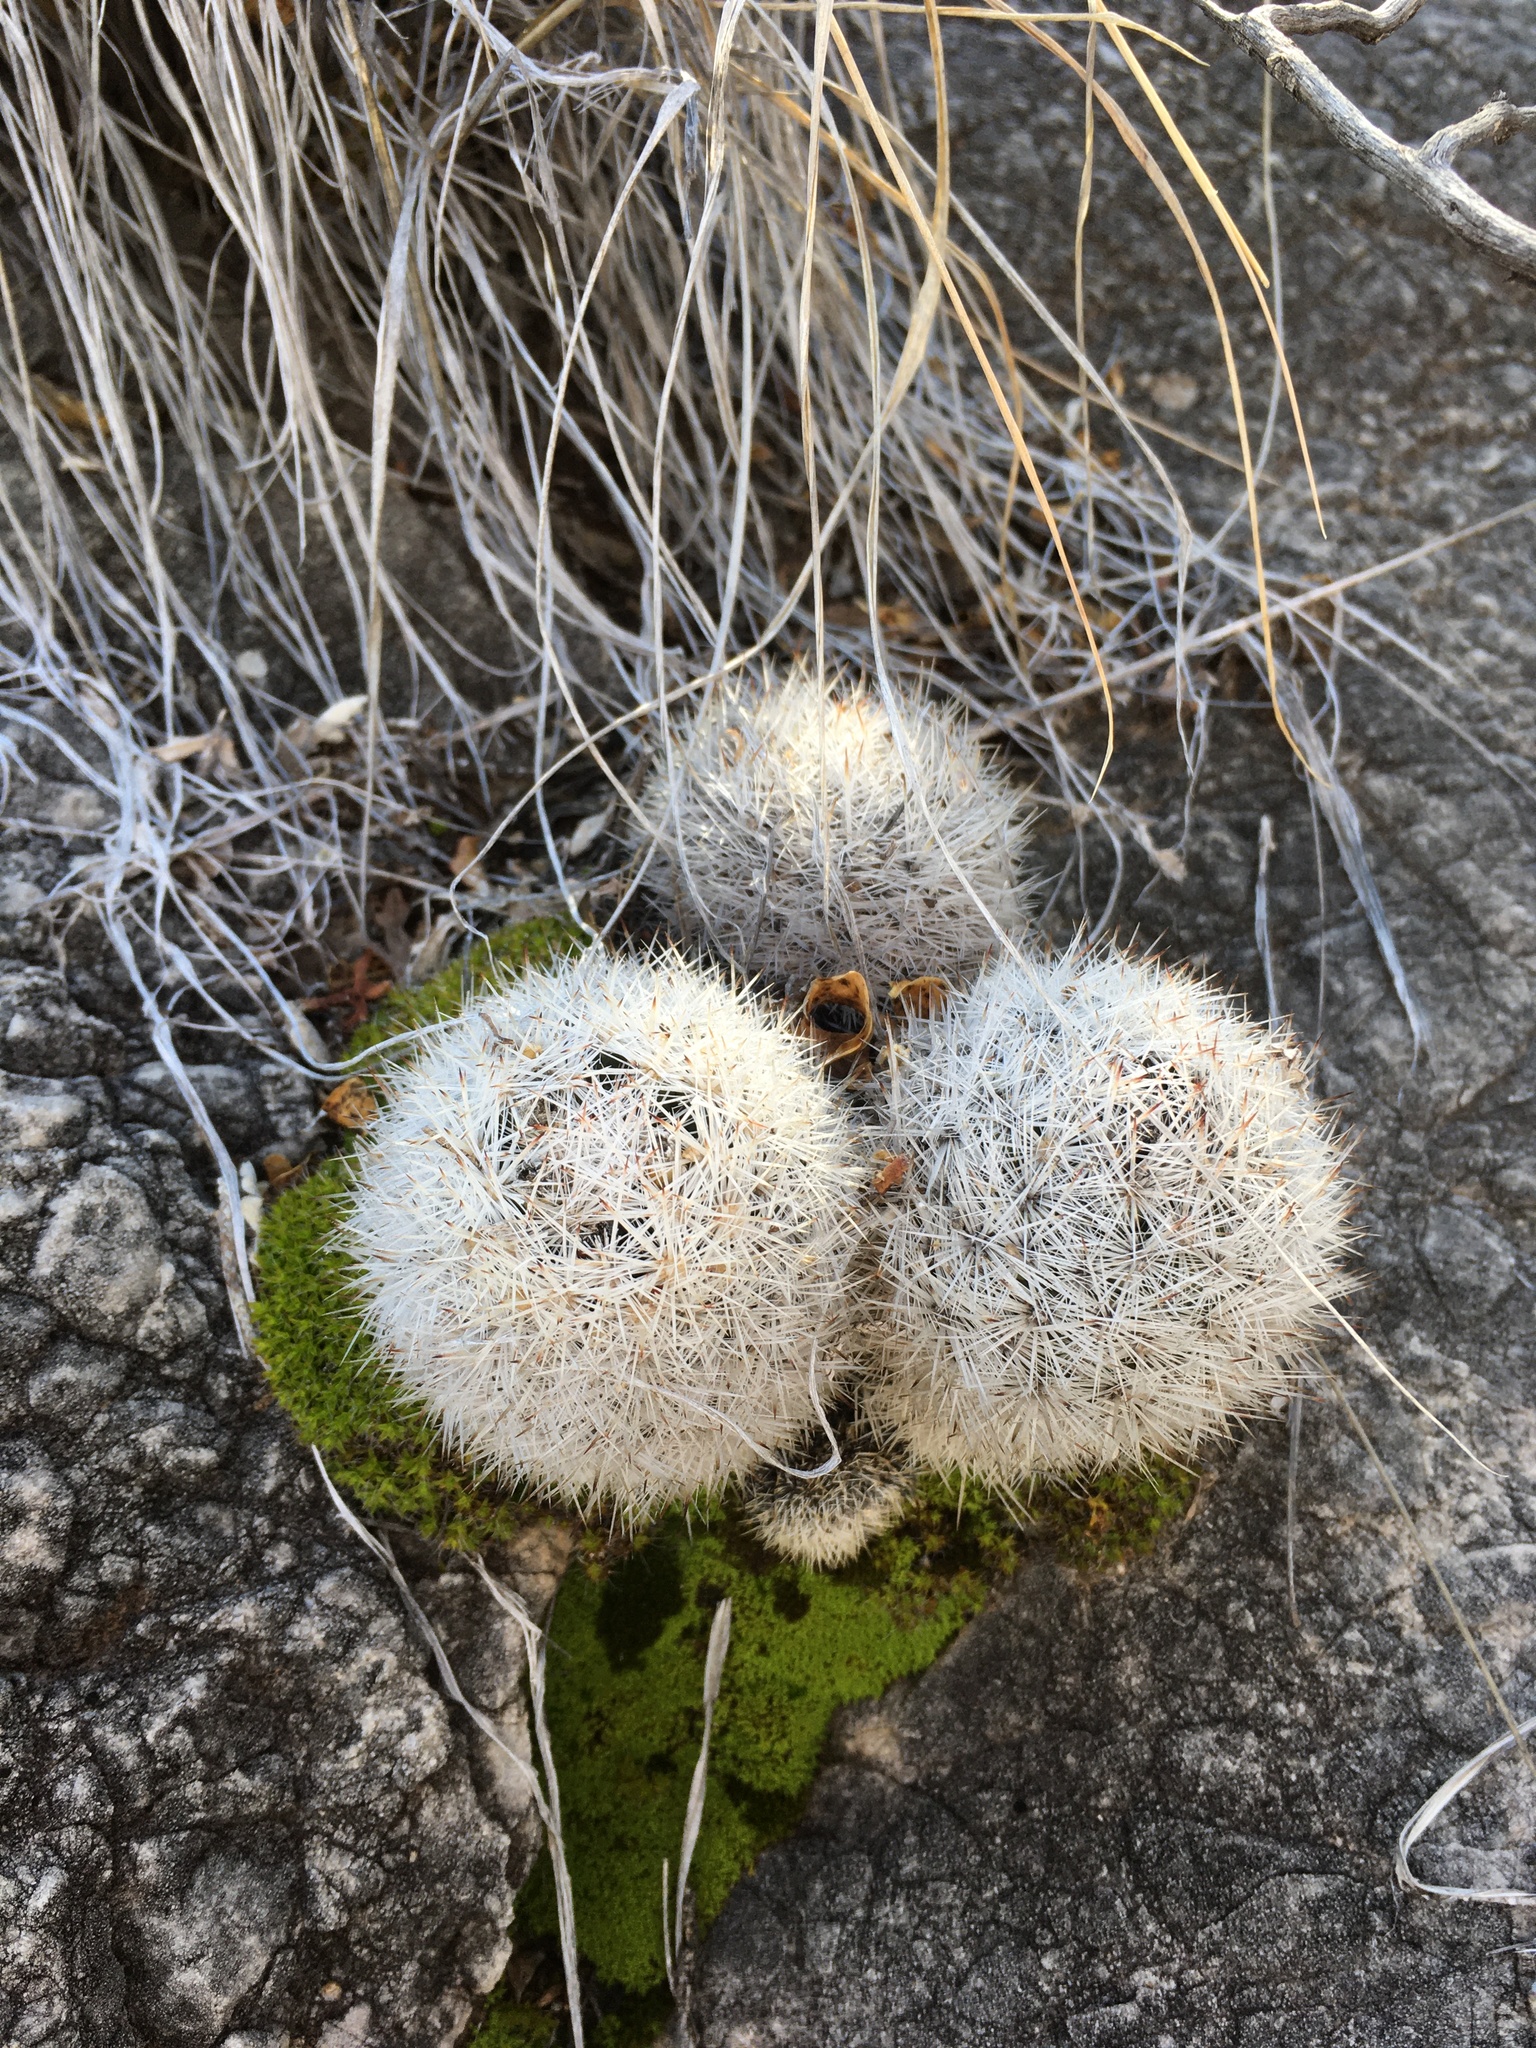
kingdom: Plantae
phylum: Tracheophyta
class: Magnoliopsida
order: Caryophyllales
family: Cactaceae
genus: Pelecyphora
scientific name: Pelecyphora sneedii
